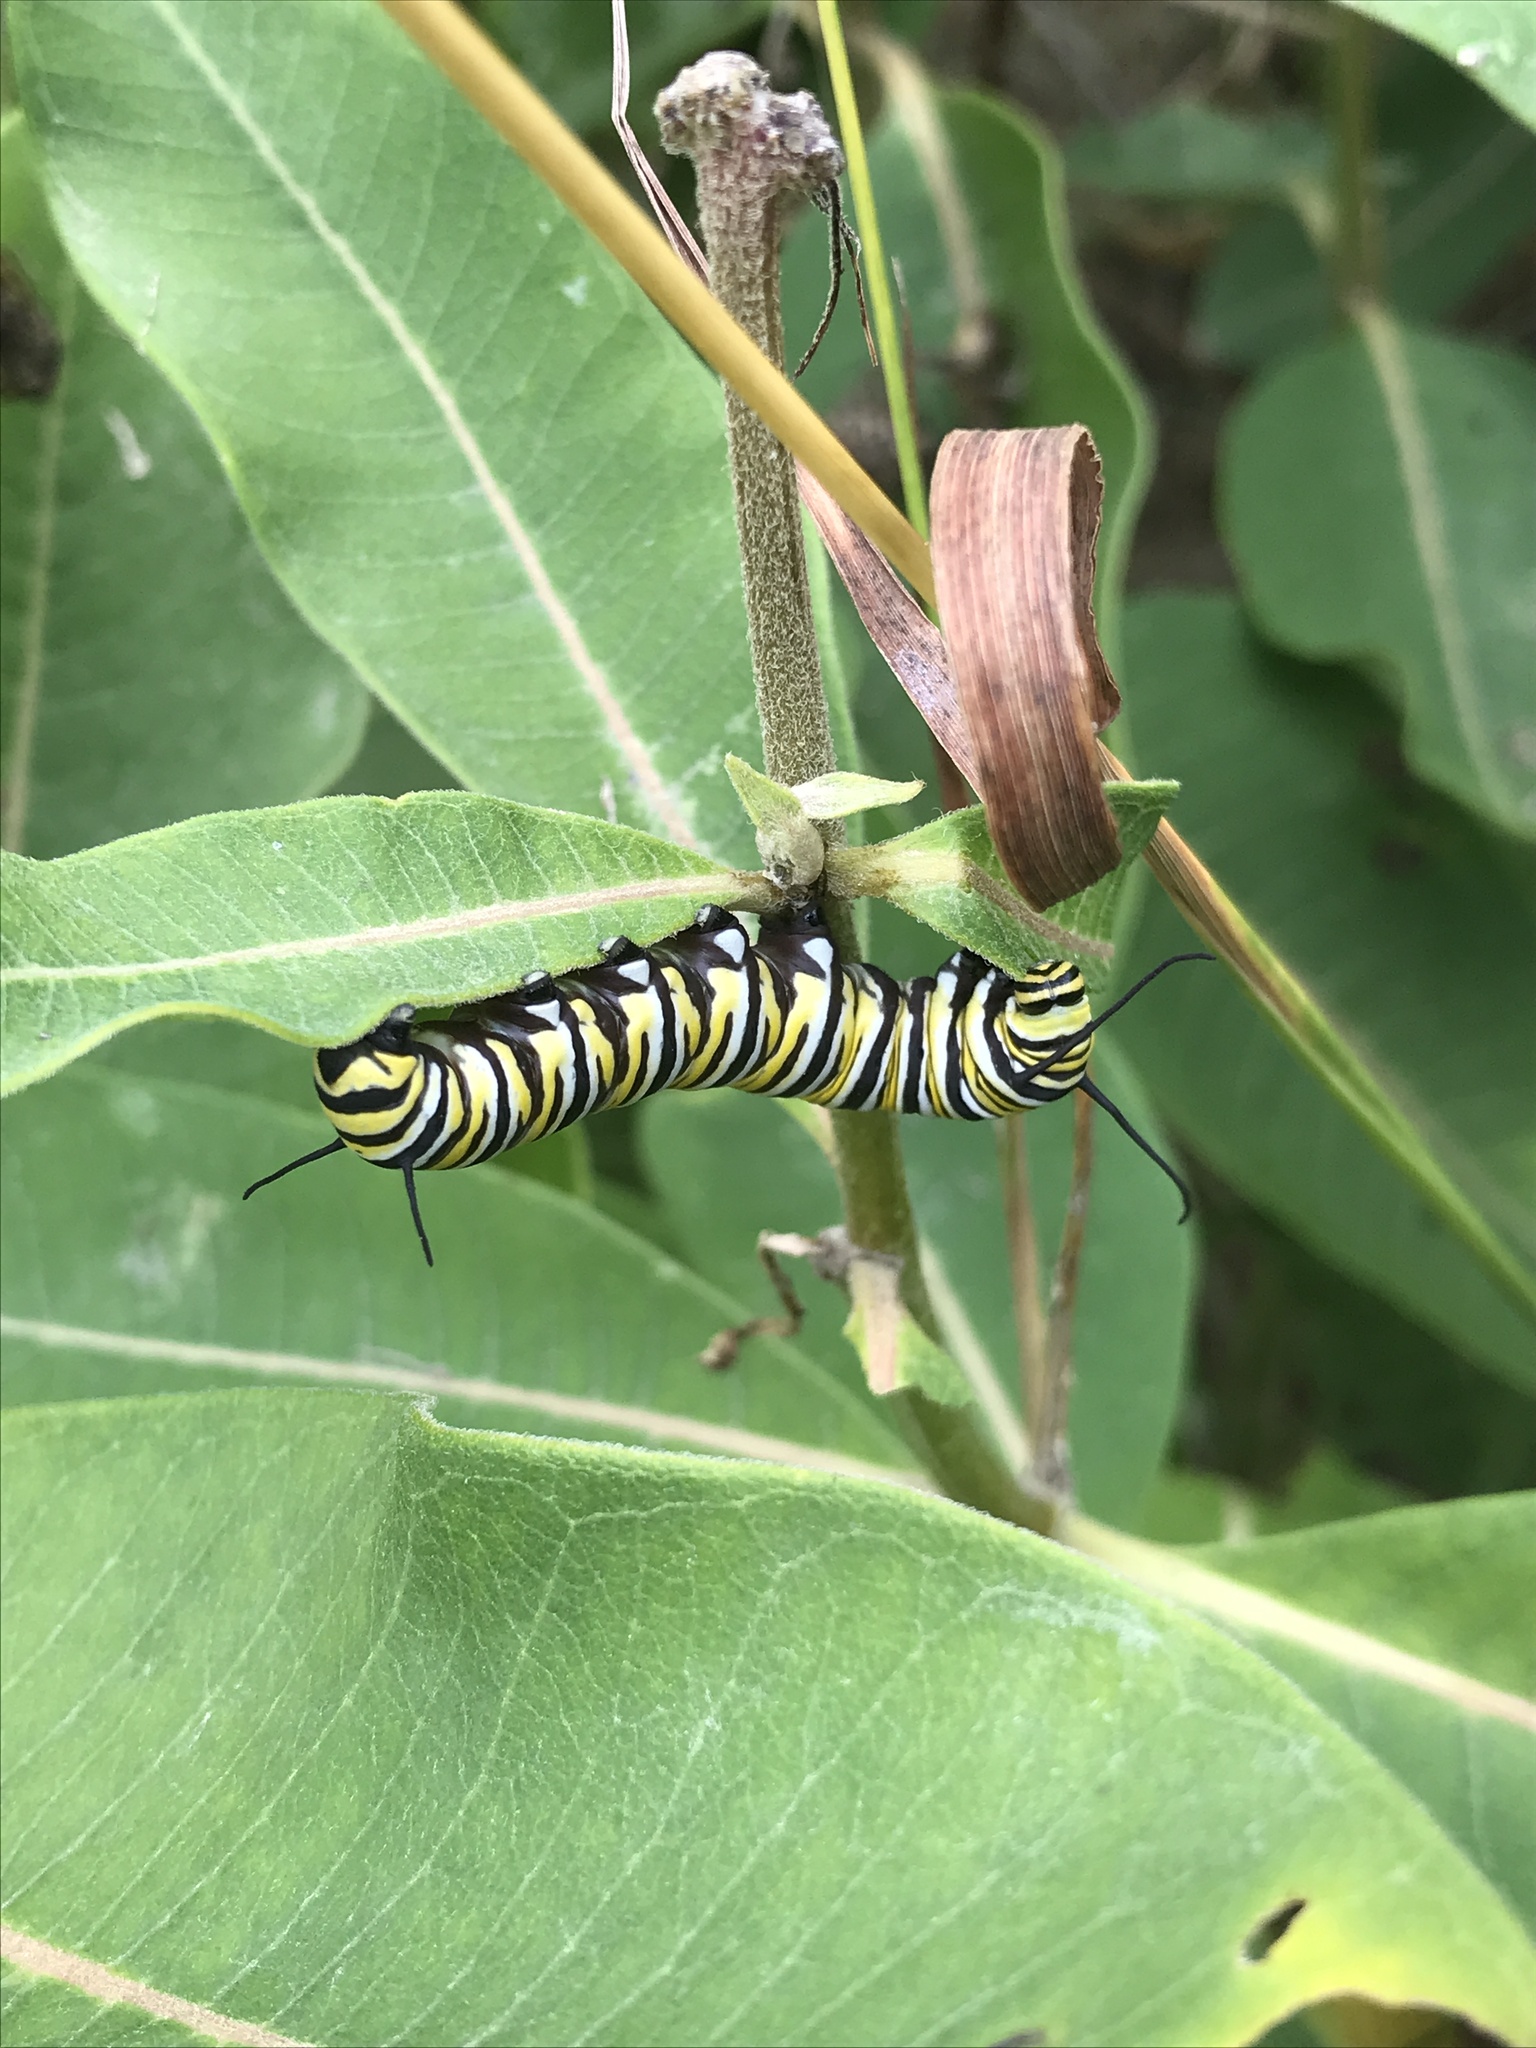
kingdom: Animalia
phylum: Arthropoda
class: Insecta
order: Lepidoptera
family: Nymphalidae
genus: Danaus
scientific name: Danaus plexippus
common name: Monarch
